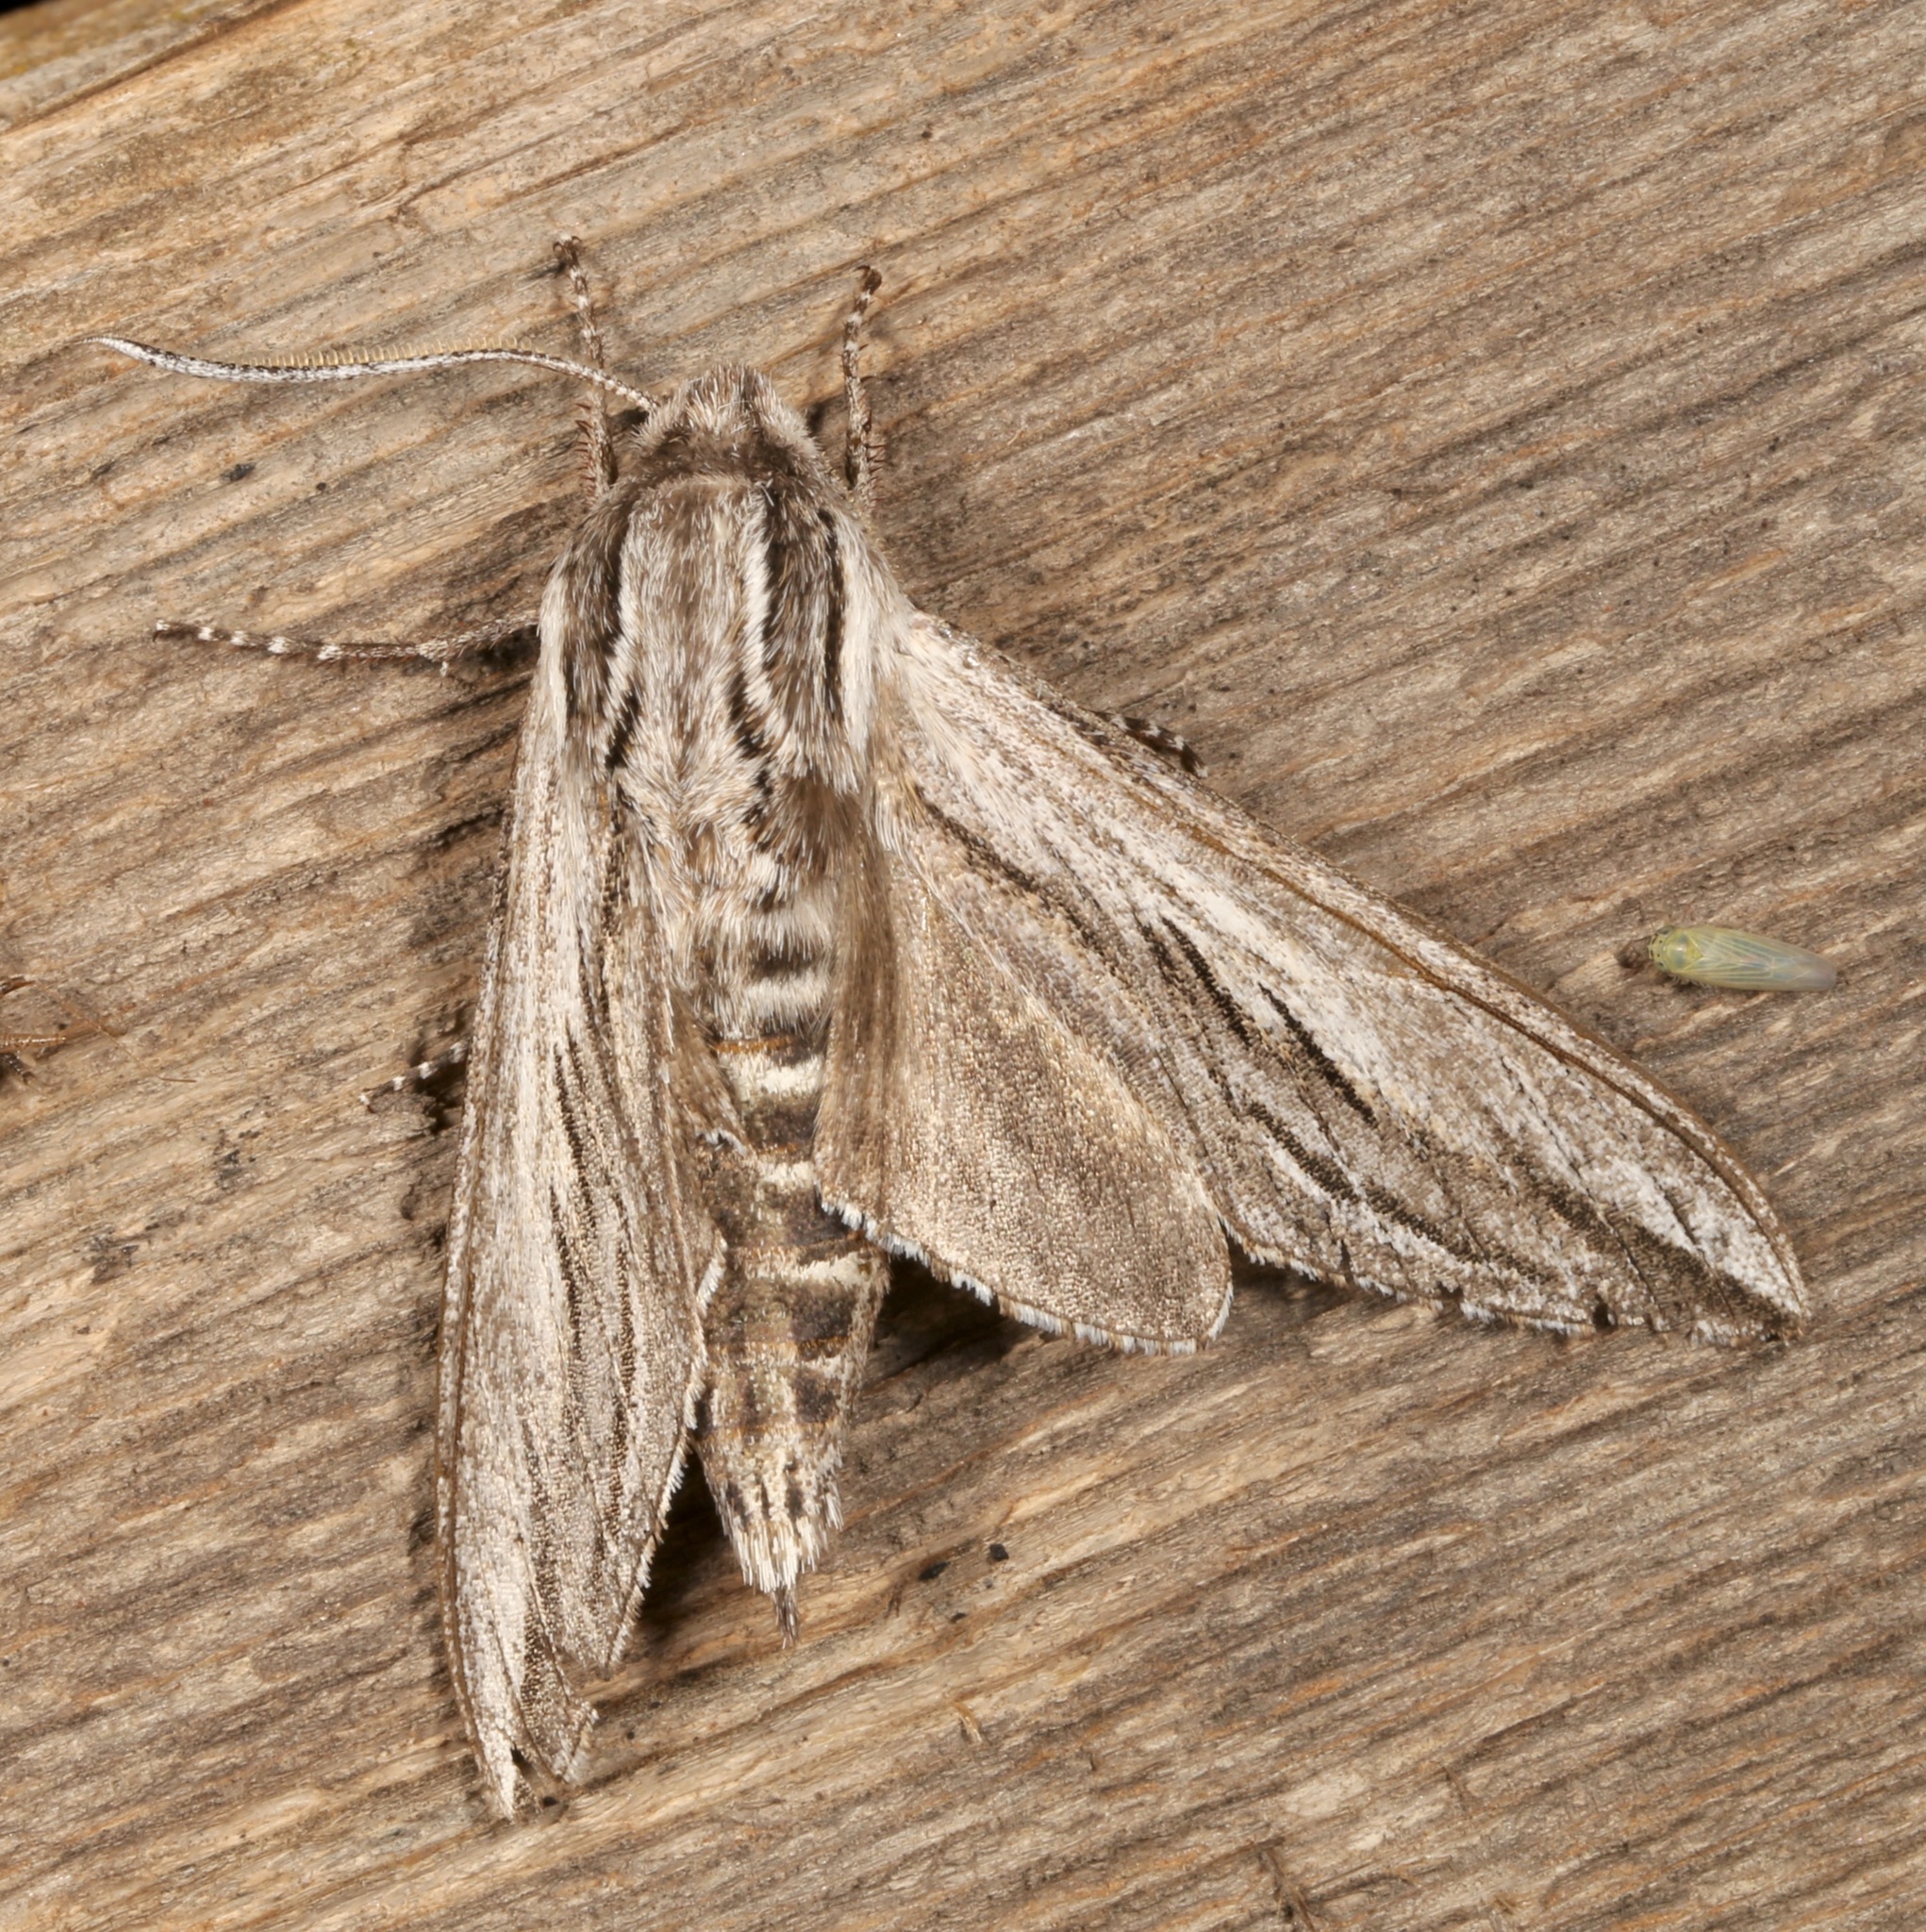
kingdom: Animalia
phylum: Arthropoda
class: Insecta
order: Lepidoptera
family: Sphingidae
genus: Sphinx
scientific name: Sphinx vanbuskirki
